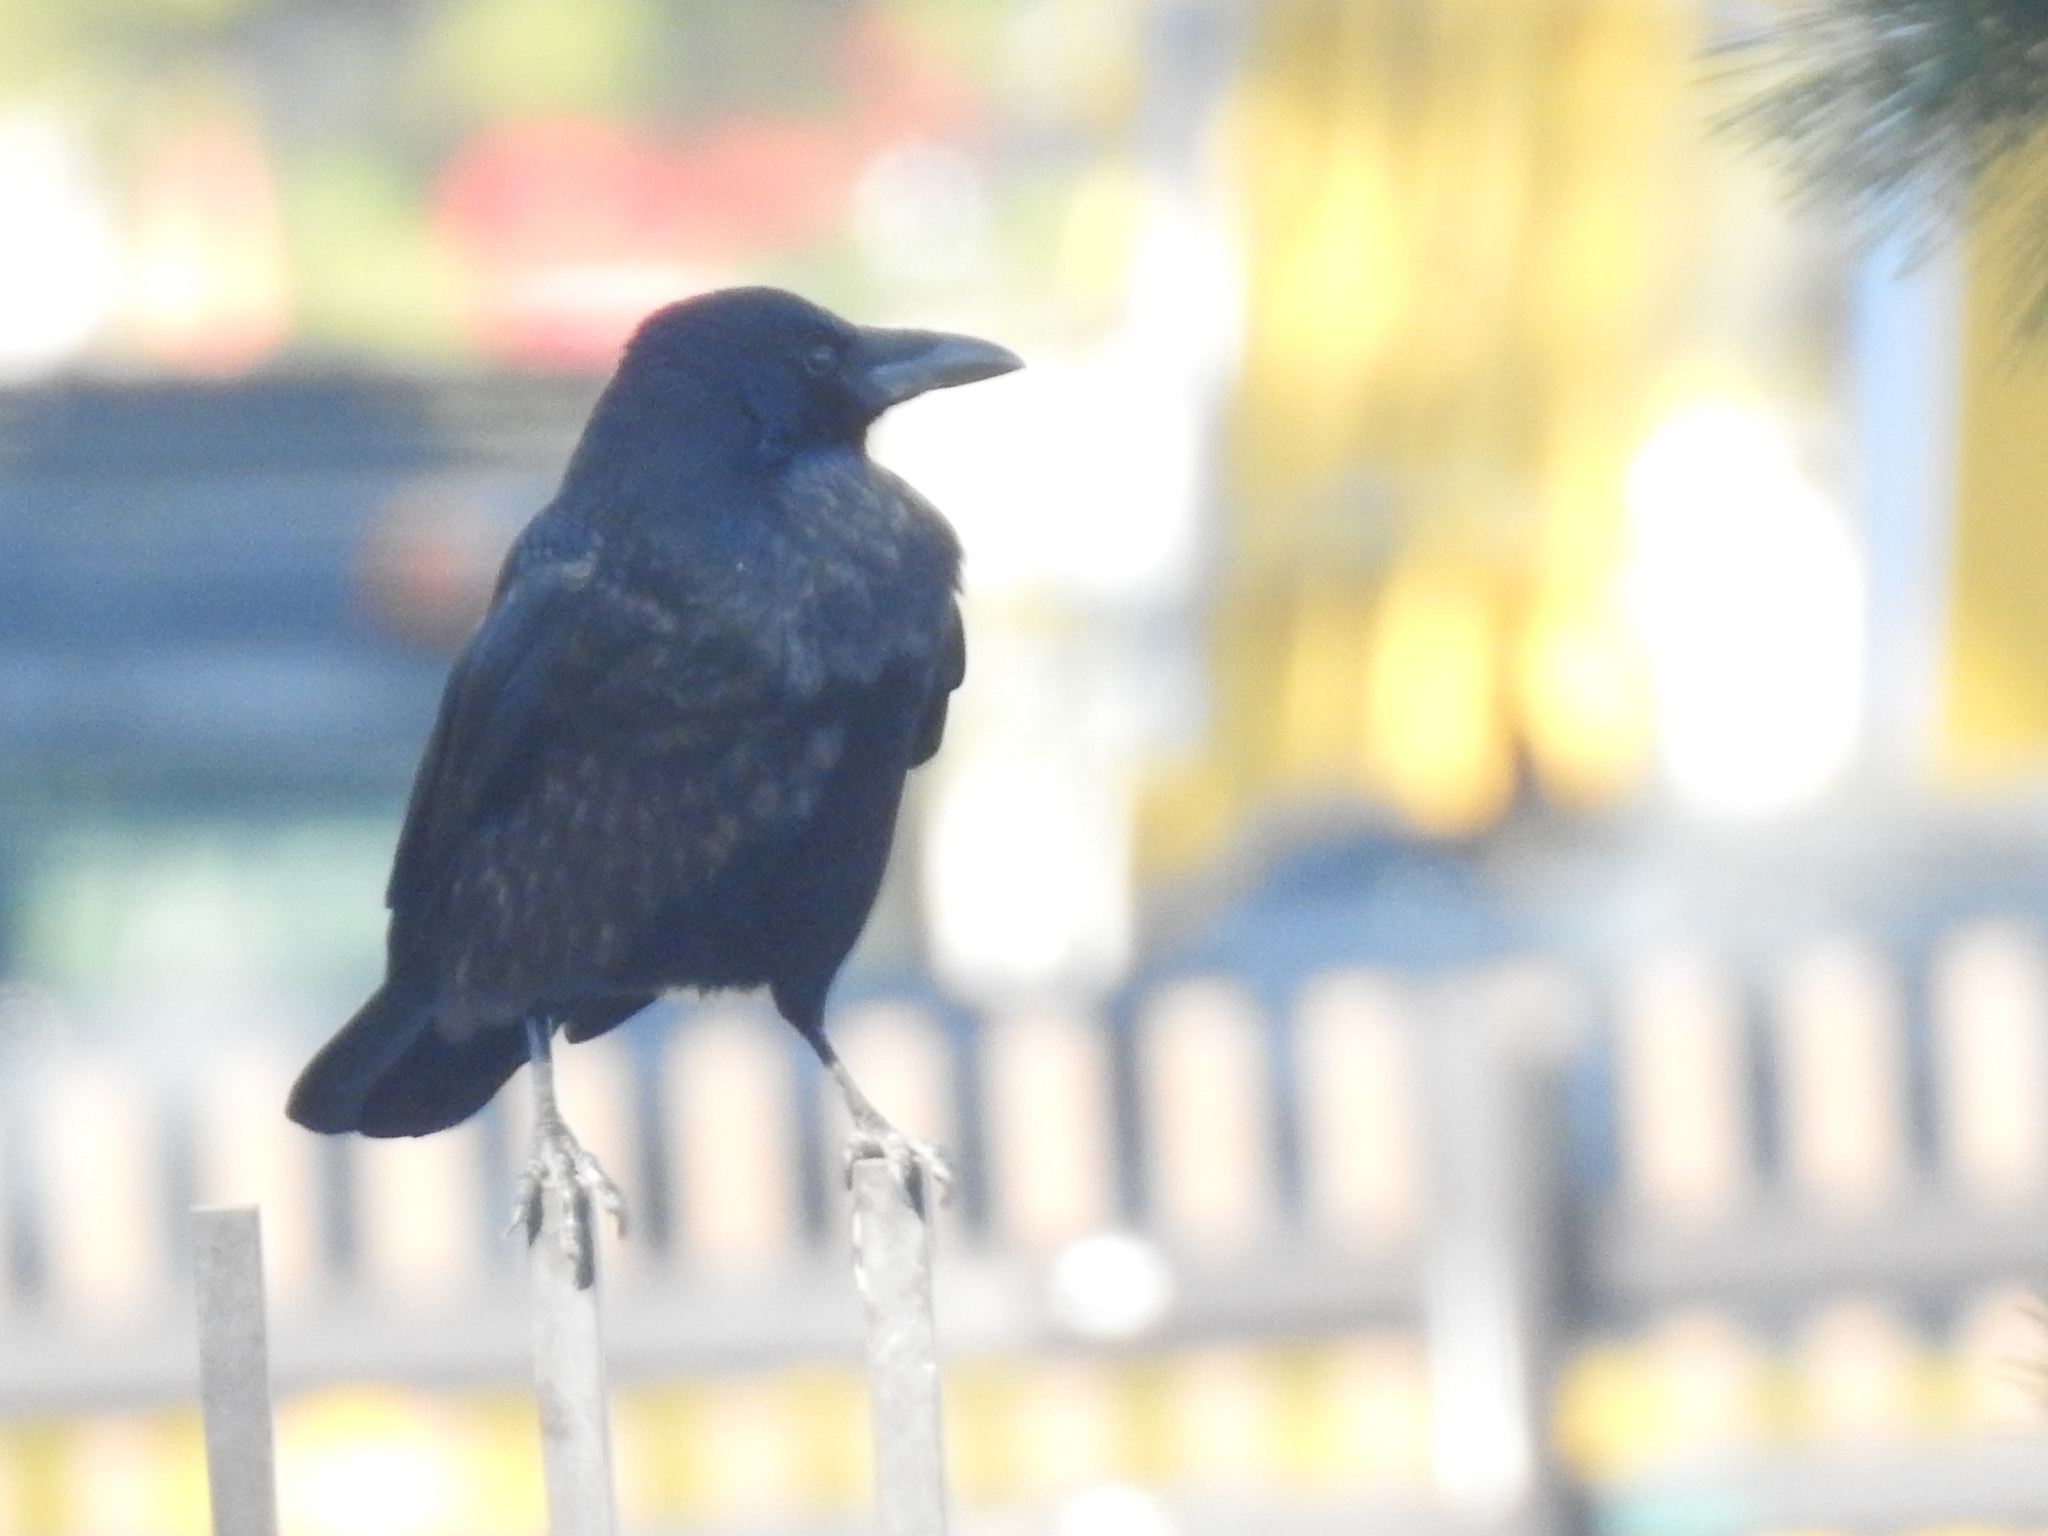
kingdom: Animalia
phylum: Chordata
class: Aves
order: Passeriformes
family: Corvidae
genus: Corvus
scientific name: Corvus macrorhynchos
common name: Large-billed crow
